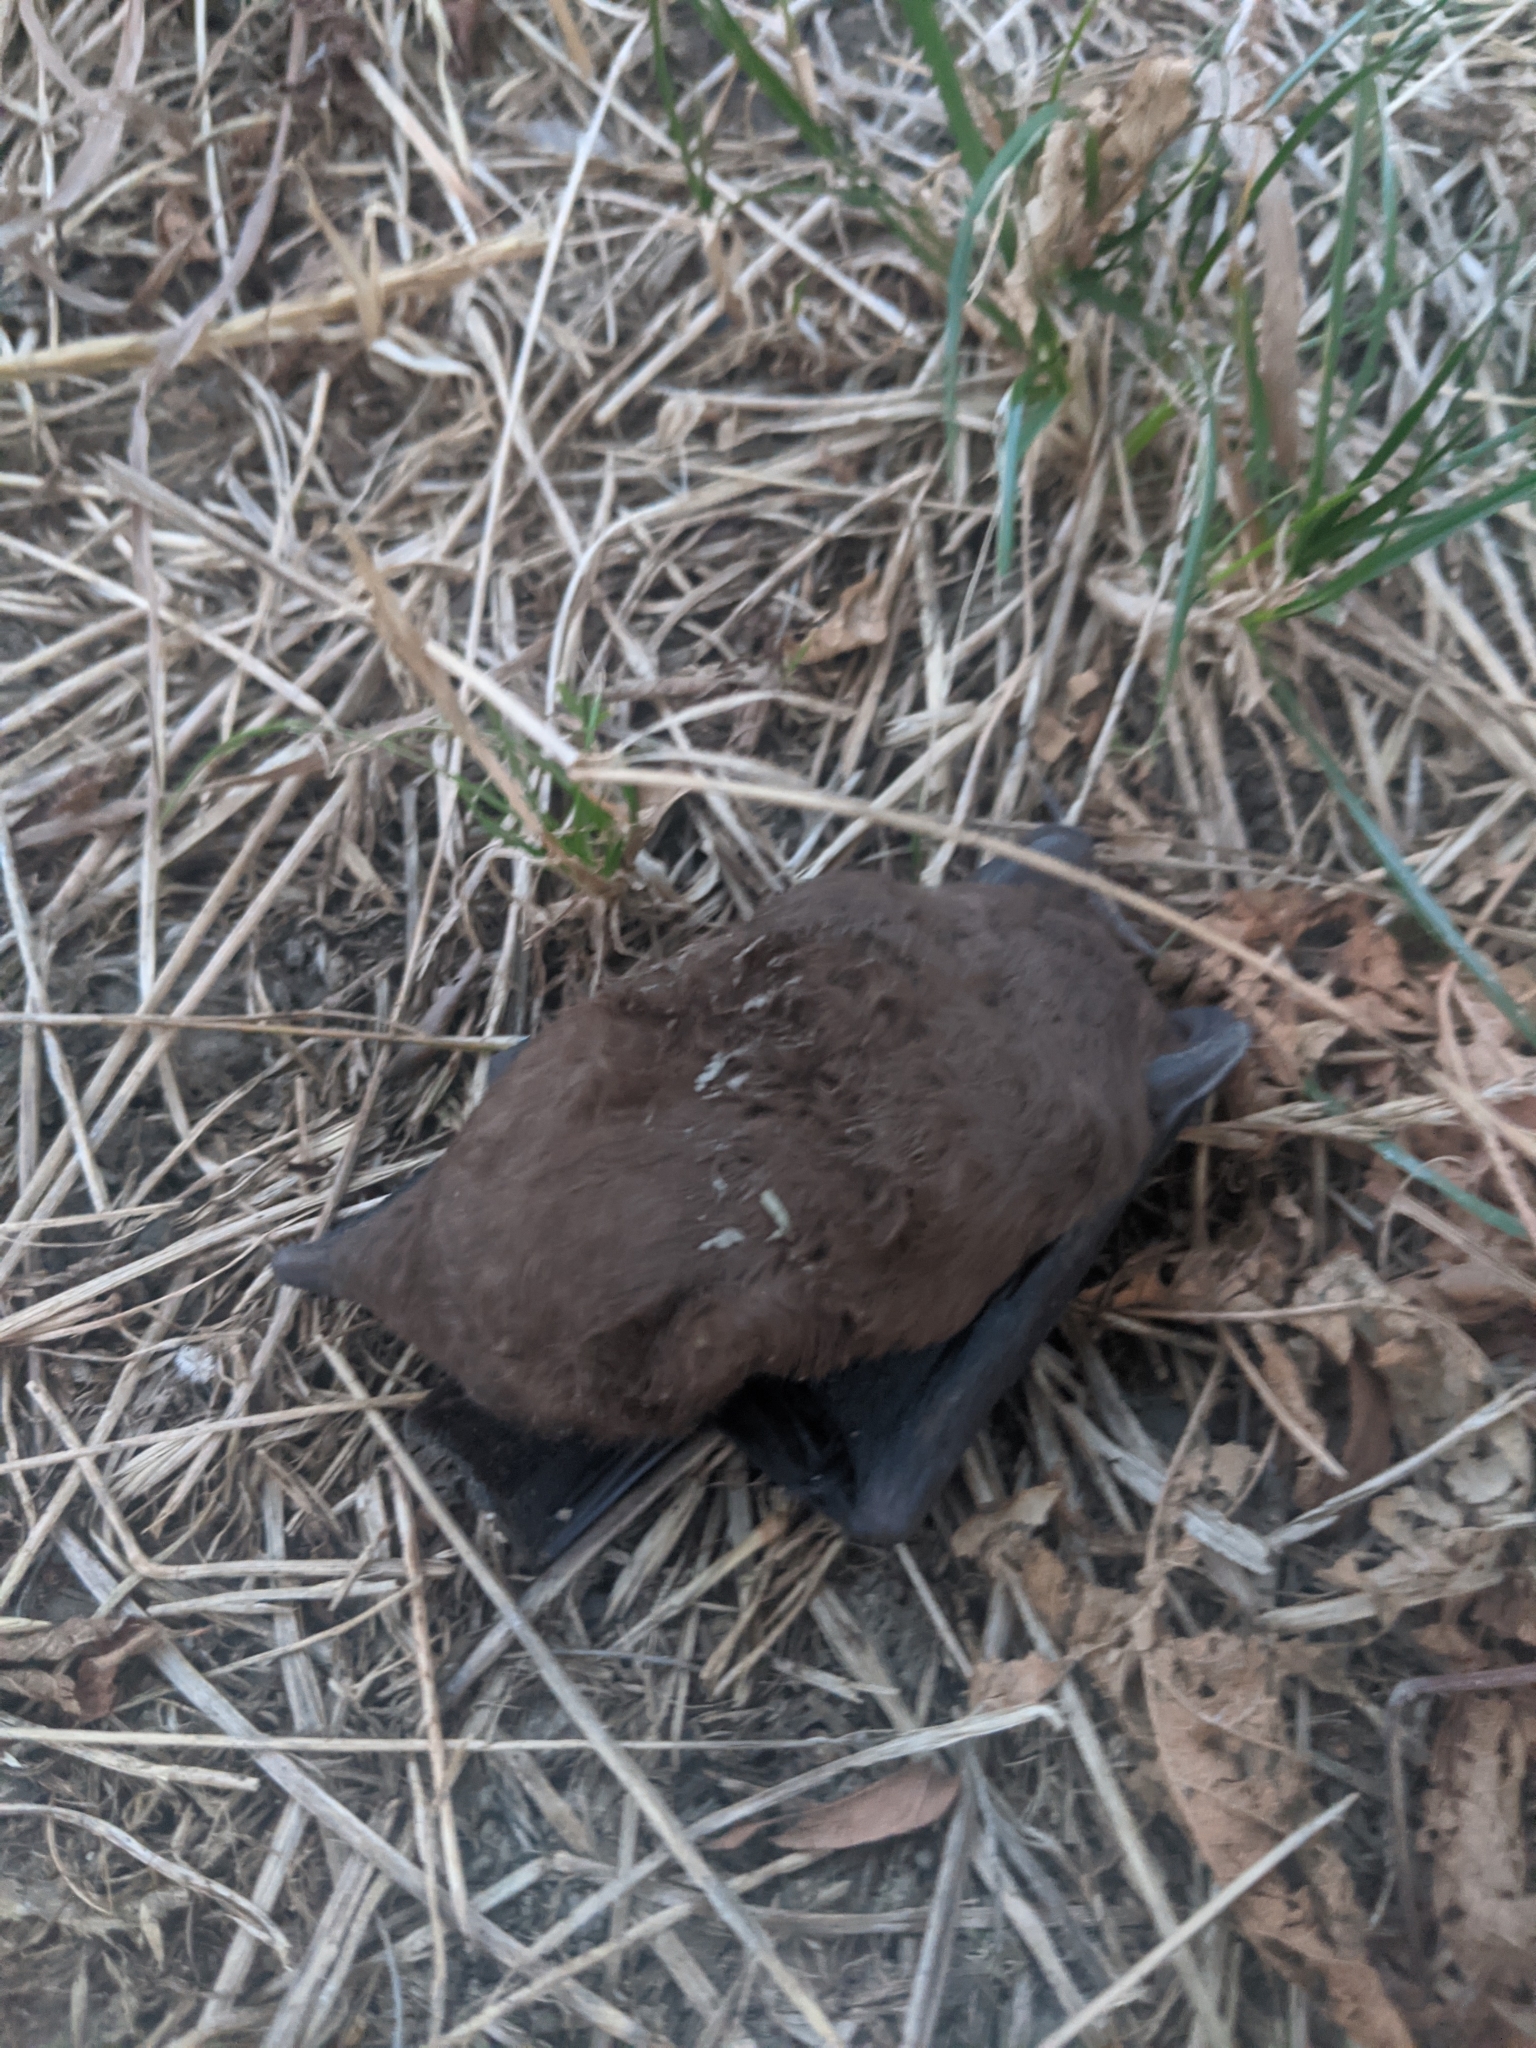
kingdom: Animalia
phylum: Chordata
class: Mammalia
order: Chiroptera
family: Vespertilionidae
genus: Nyctalus
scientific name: Nyctalus leisleri
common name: Lesser noctule
